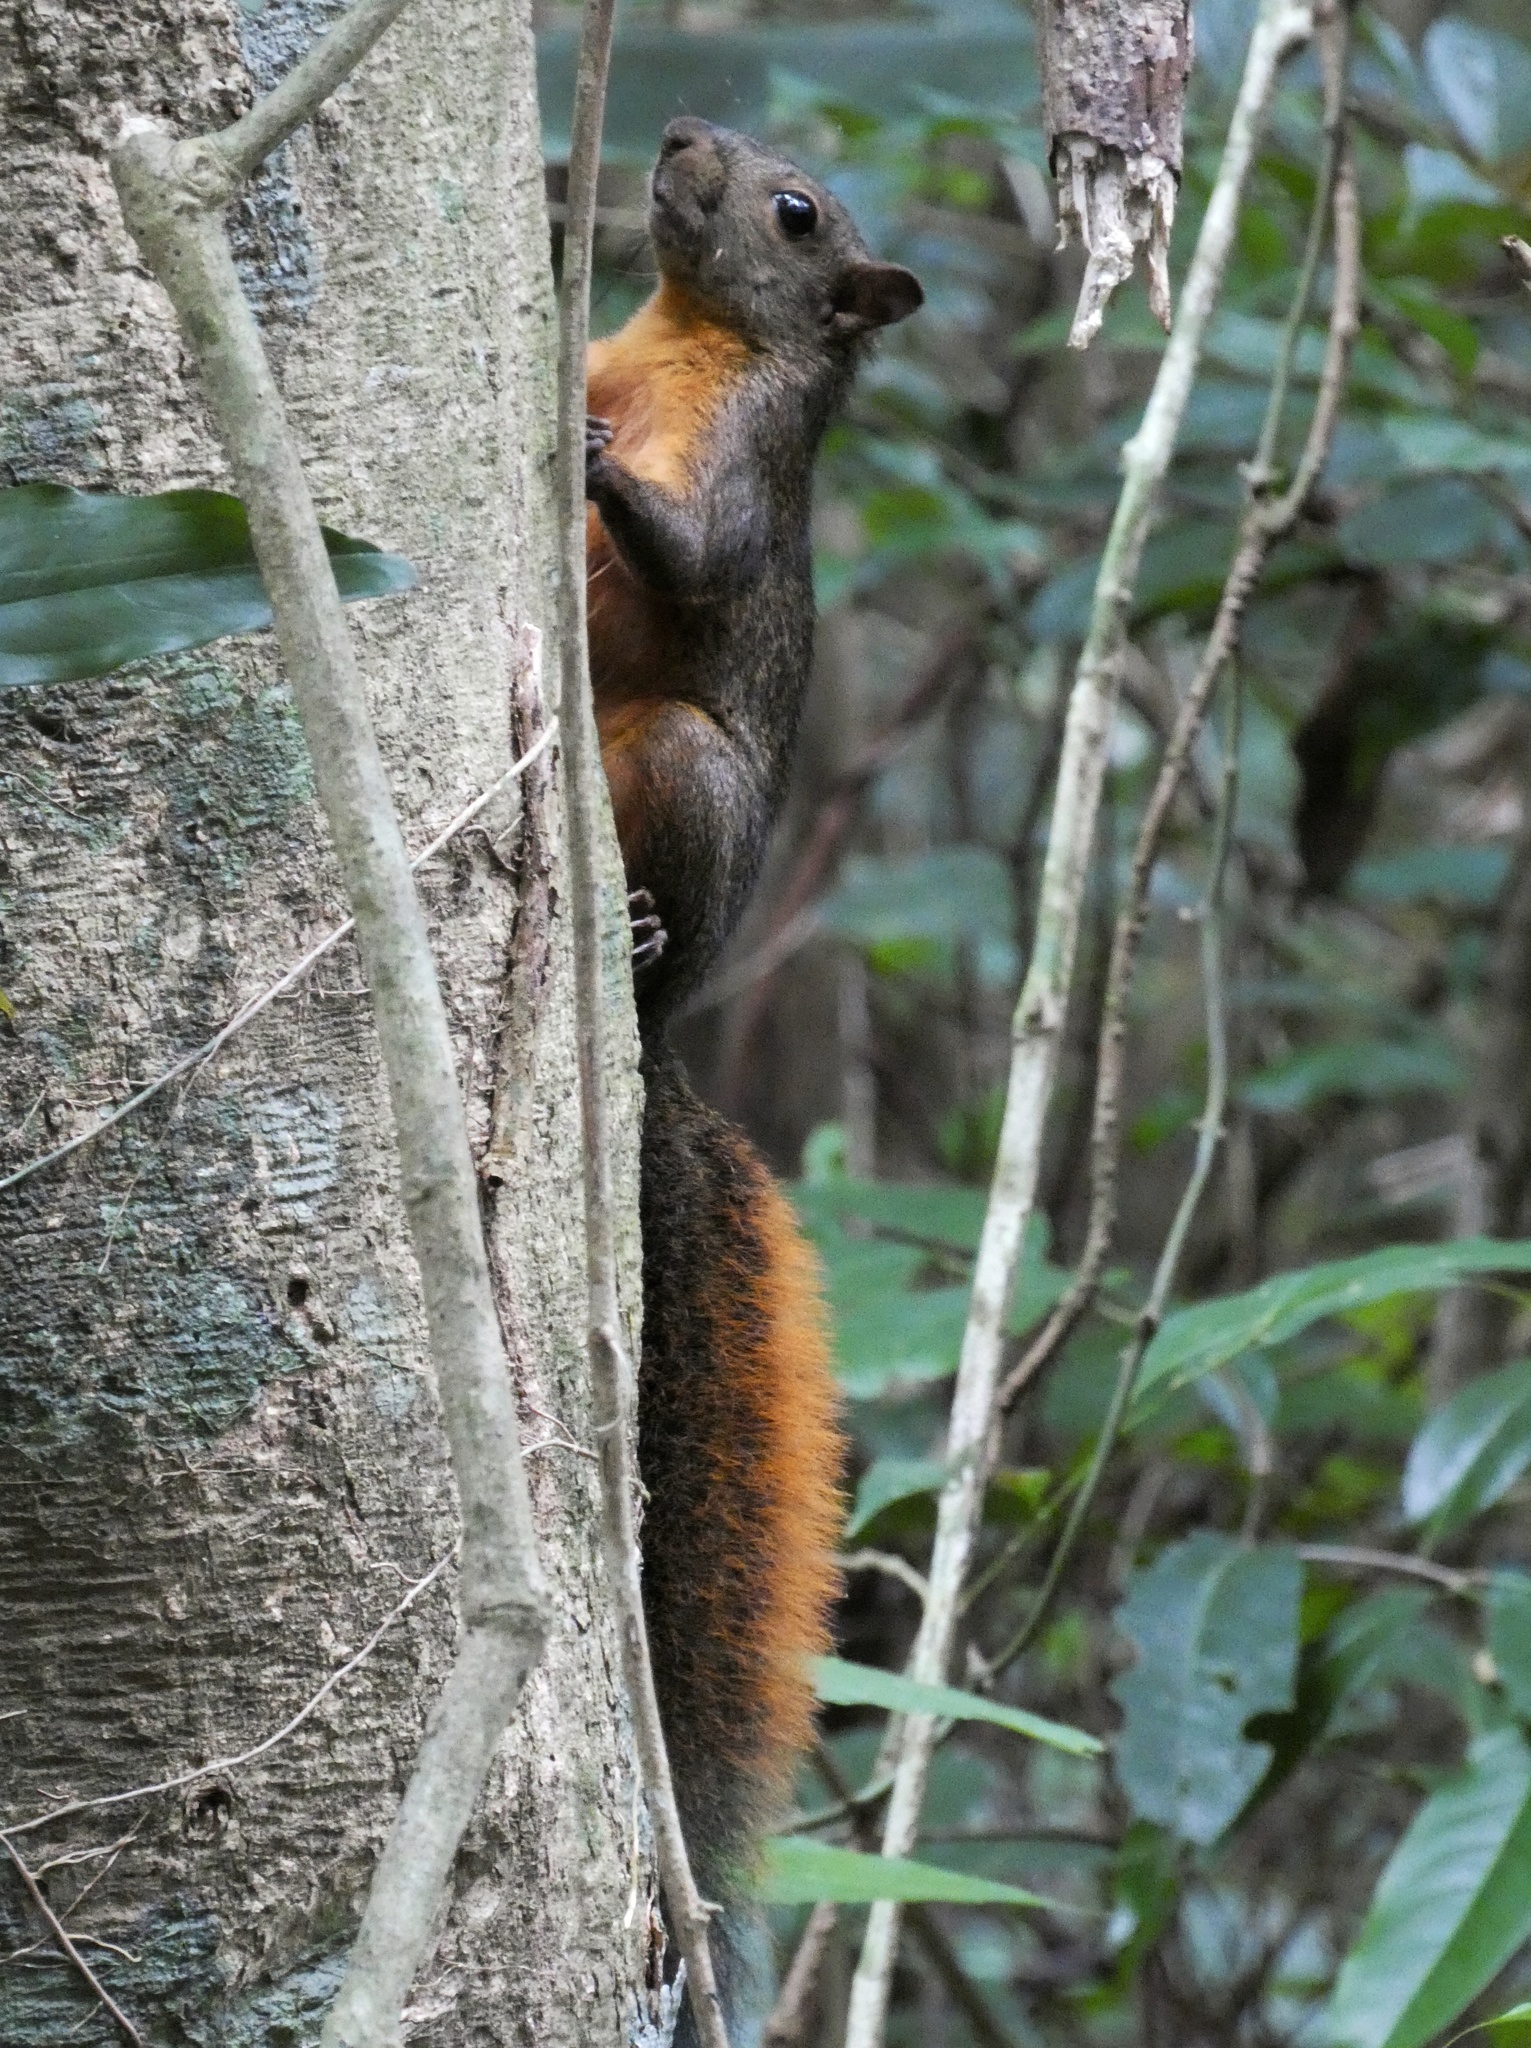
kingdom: Animalia
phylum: Chordata
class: Mammalia
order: Rodentia
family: Sciuridae
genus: Sciurus
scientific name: Sciurus granatensis
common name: Red-tailed squirrel
